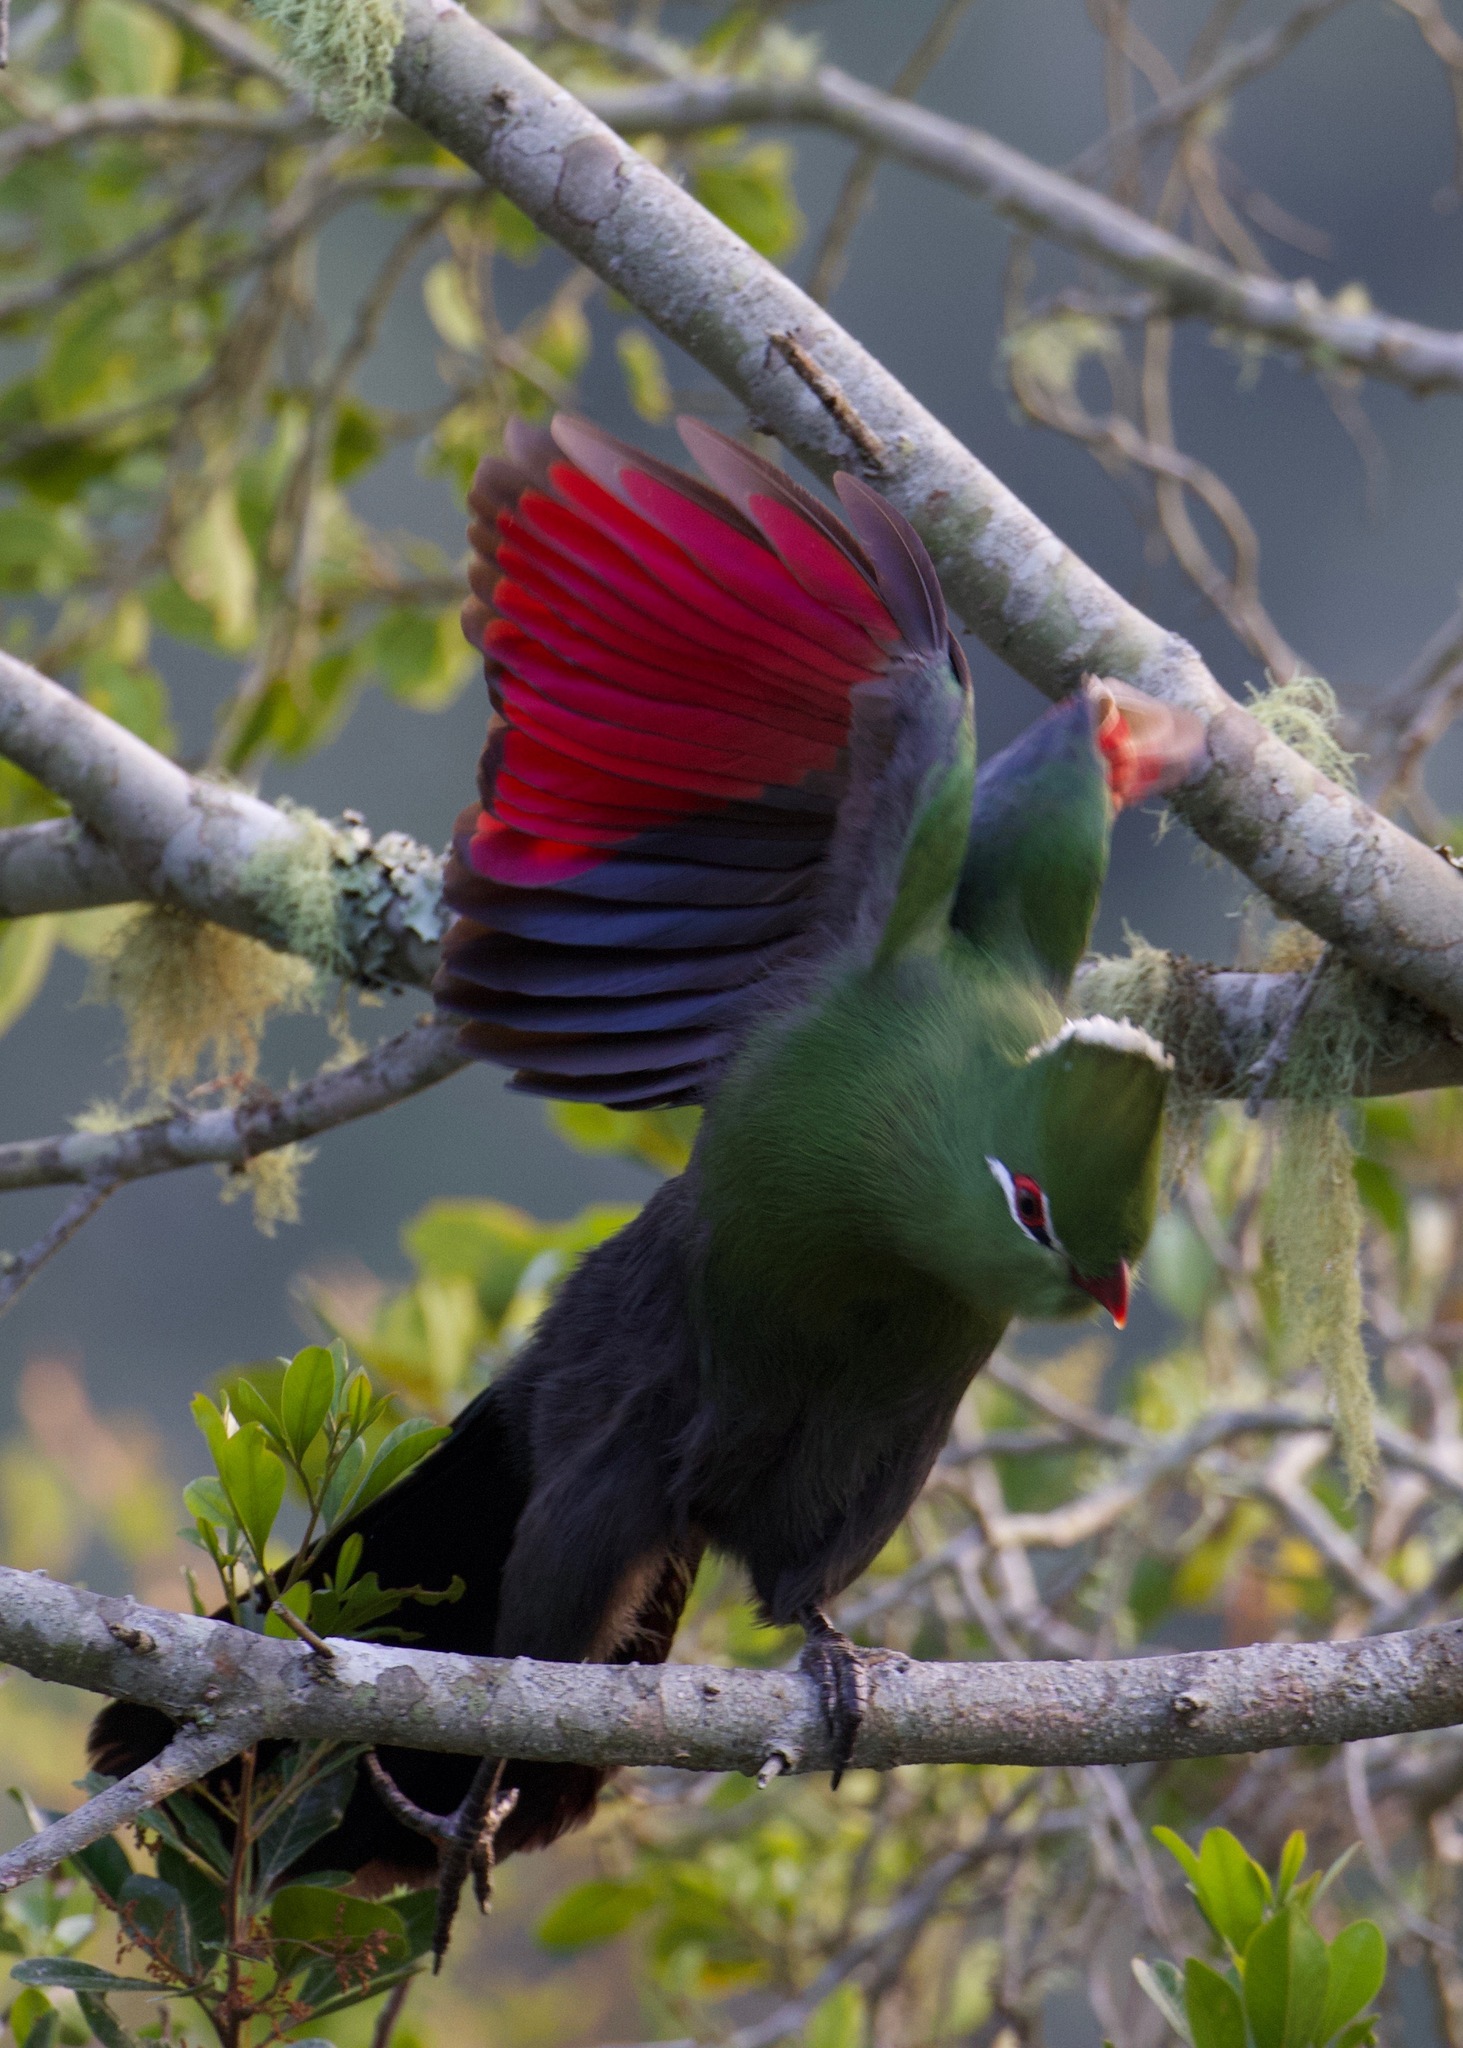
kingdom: Animalia
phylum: Chordata
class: Aves
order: Musophagiformes
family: Musophagidae
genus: Tauraco
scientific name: Tauraco corythaix
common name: Knysna turaco
